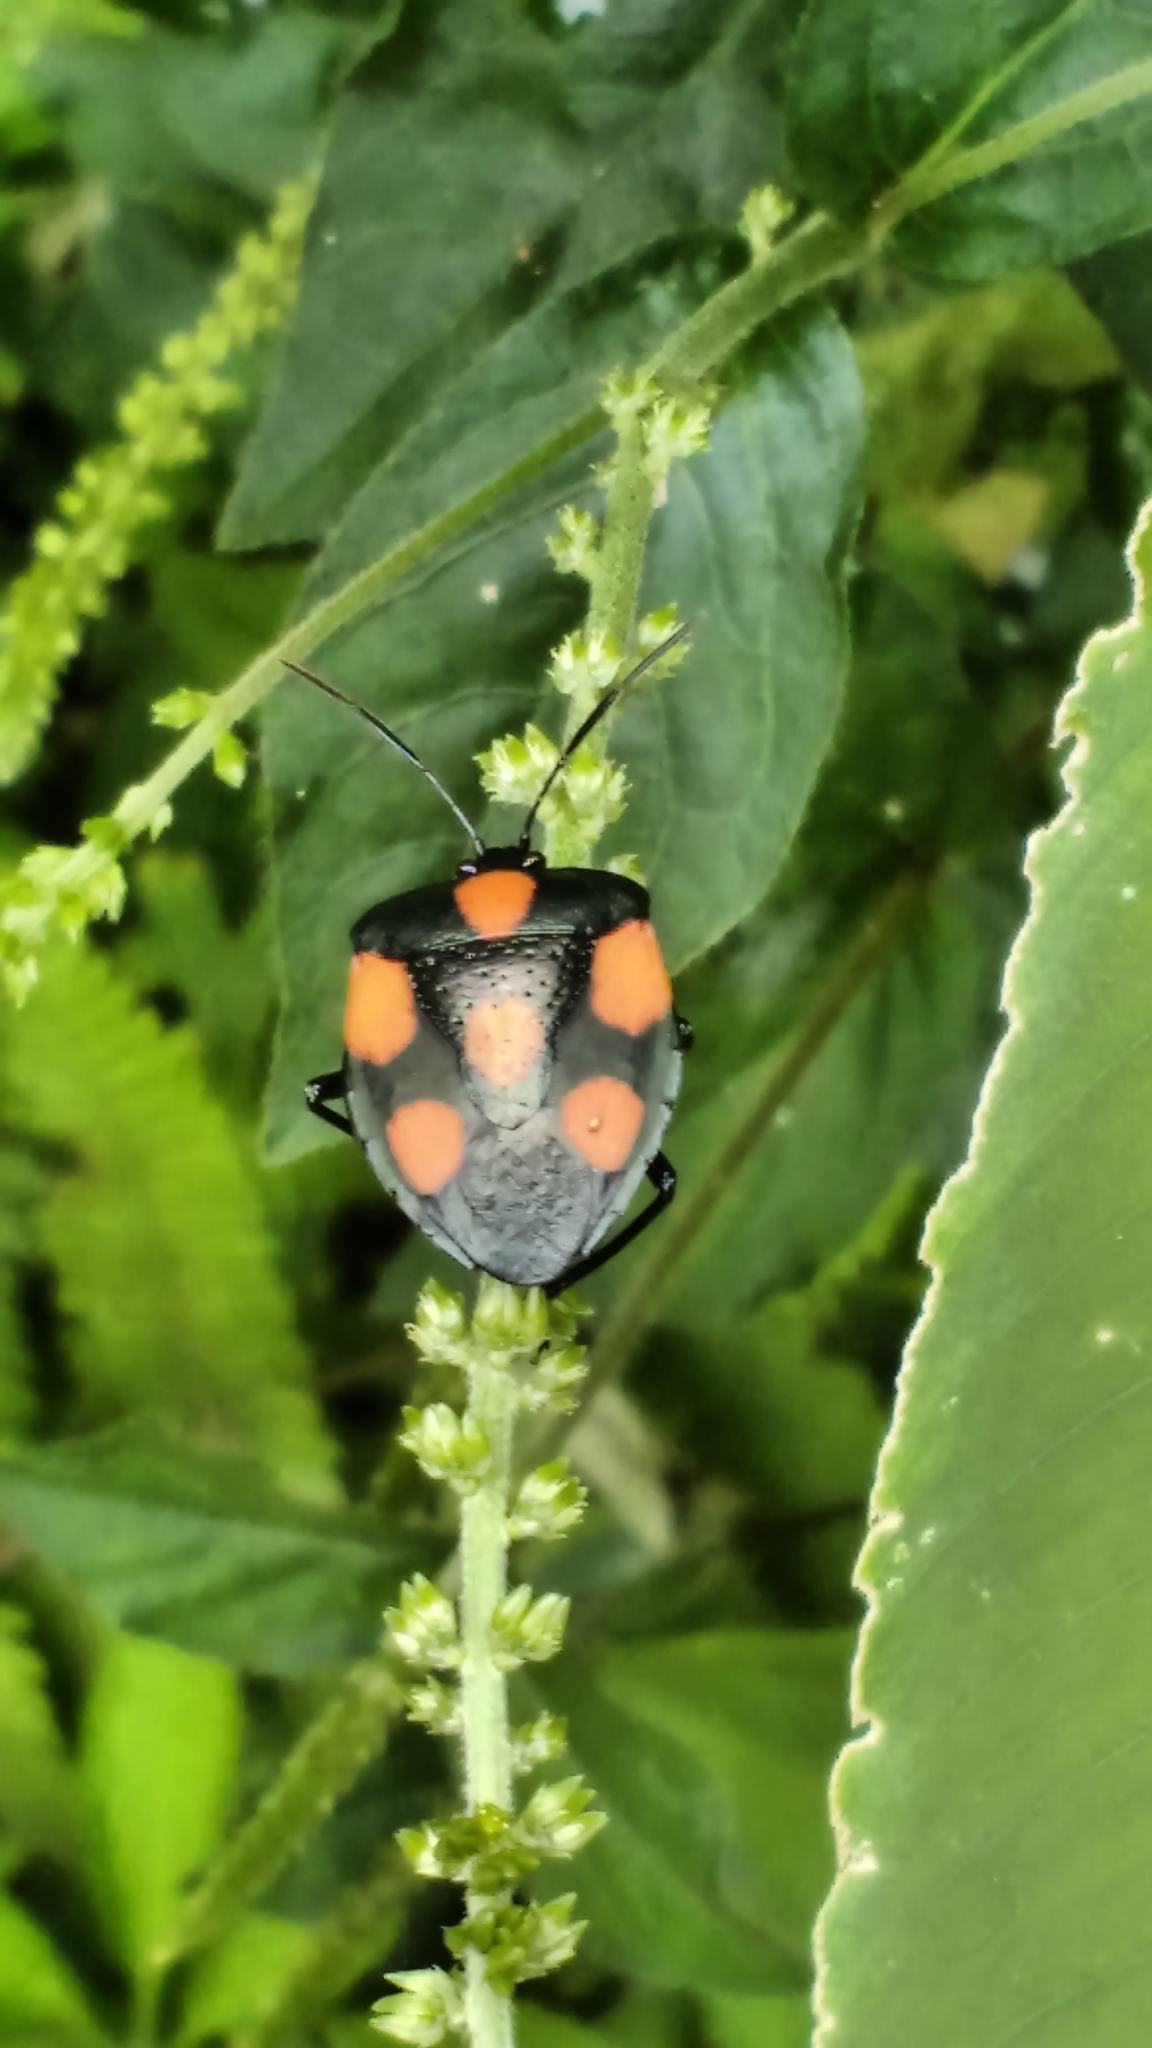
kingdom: Animalia
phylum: Arthropoda
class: Insecta
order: Hemiptera
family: Pentatomidae
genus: Brachystethus
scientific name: Brachystethus rubromaculatus
